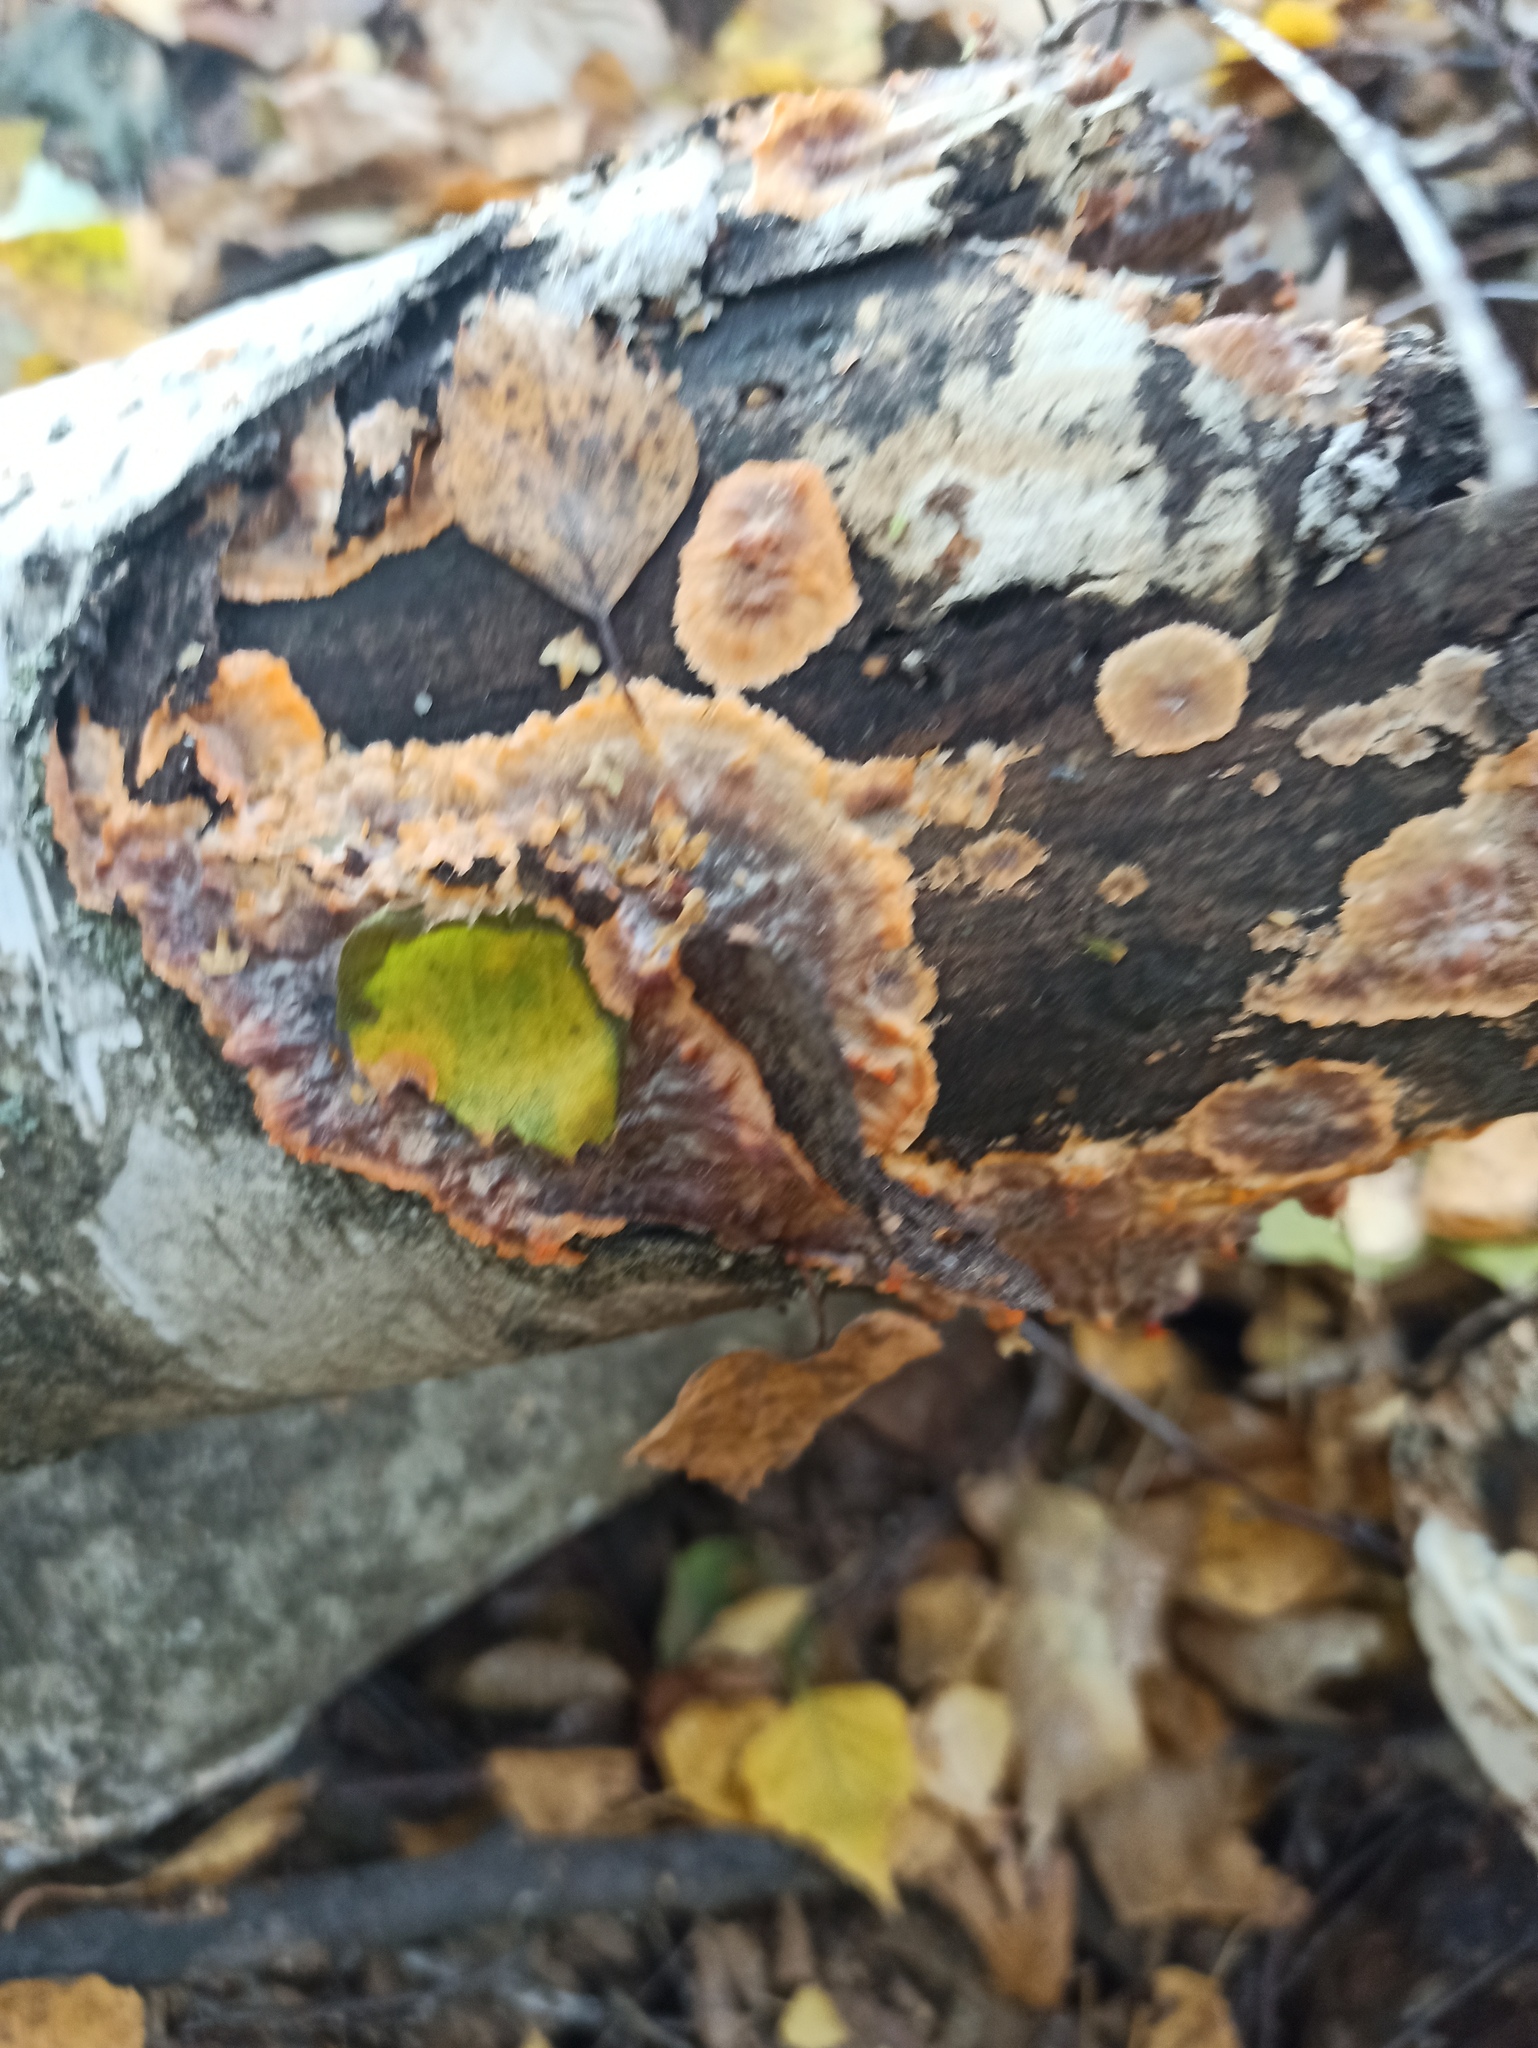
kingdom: Fungi
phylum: Basidiomycota
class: Agaricomycetes
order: Polyporales
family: Meruliaceae
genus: Phlebia
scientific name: Phlebia radiata
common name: Wrinkled crust
